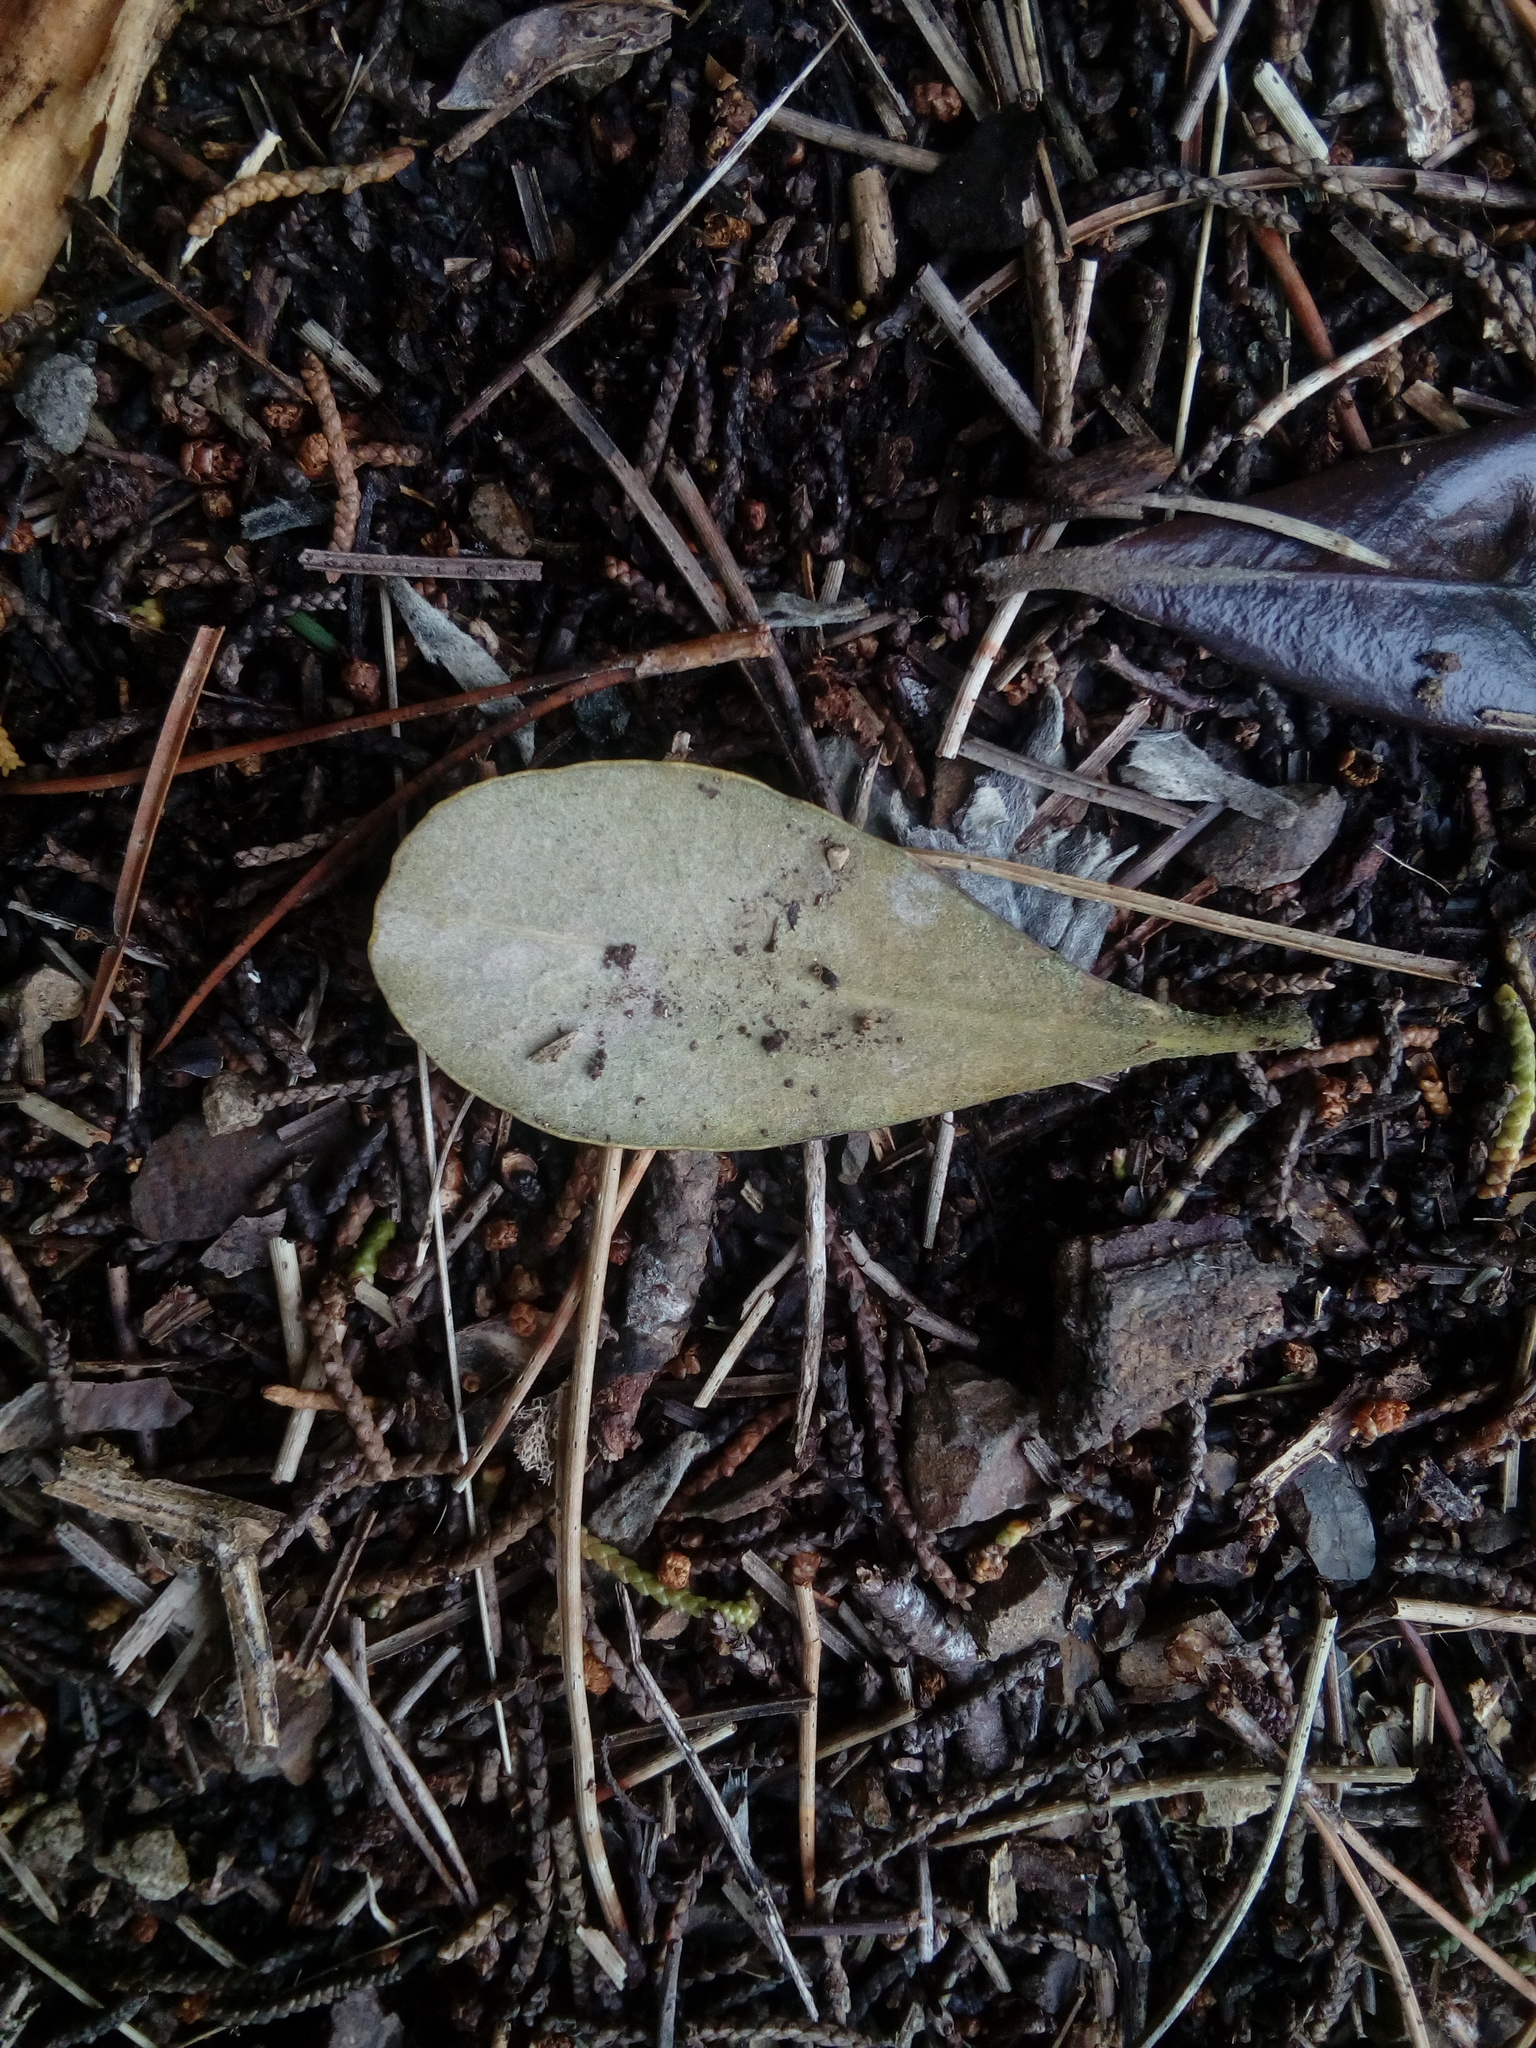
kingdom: Plantae
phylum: Tracheophyta
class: Magnoliopsida
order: Apiales
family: Pittosporaceae
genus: Pittosporum
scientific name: Pittosporum crassifolium
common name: Karo
